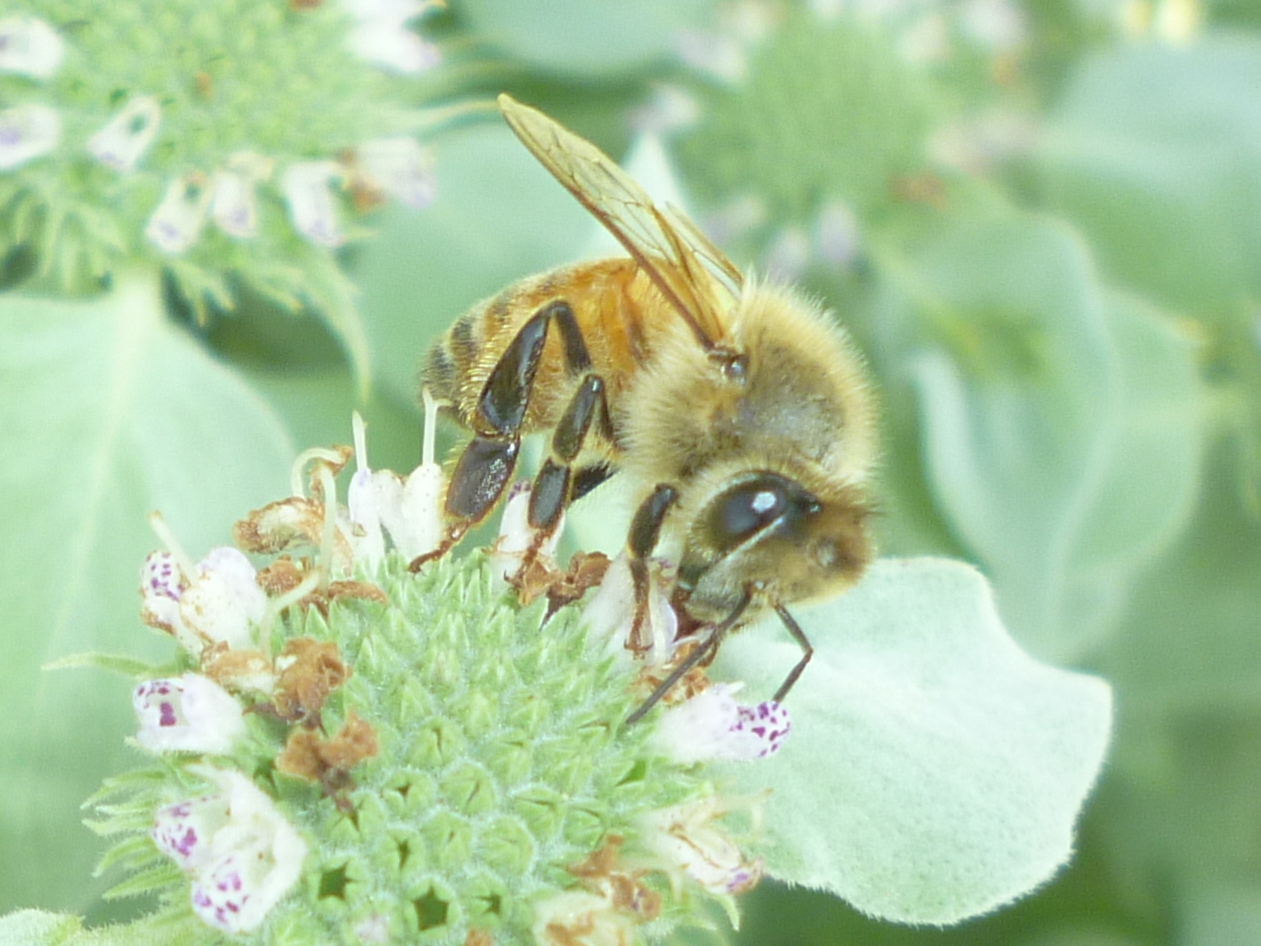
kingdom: Animalia
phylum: Arthropoda
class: Insecta
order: Hymenoptera
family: Apidae
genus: Apis
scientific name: Apis mellifera
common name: Honey bee
